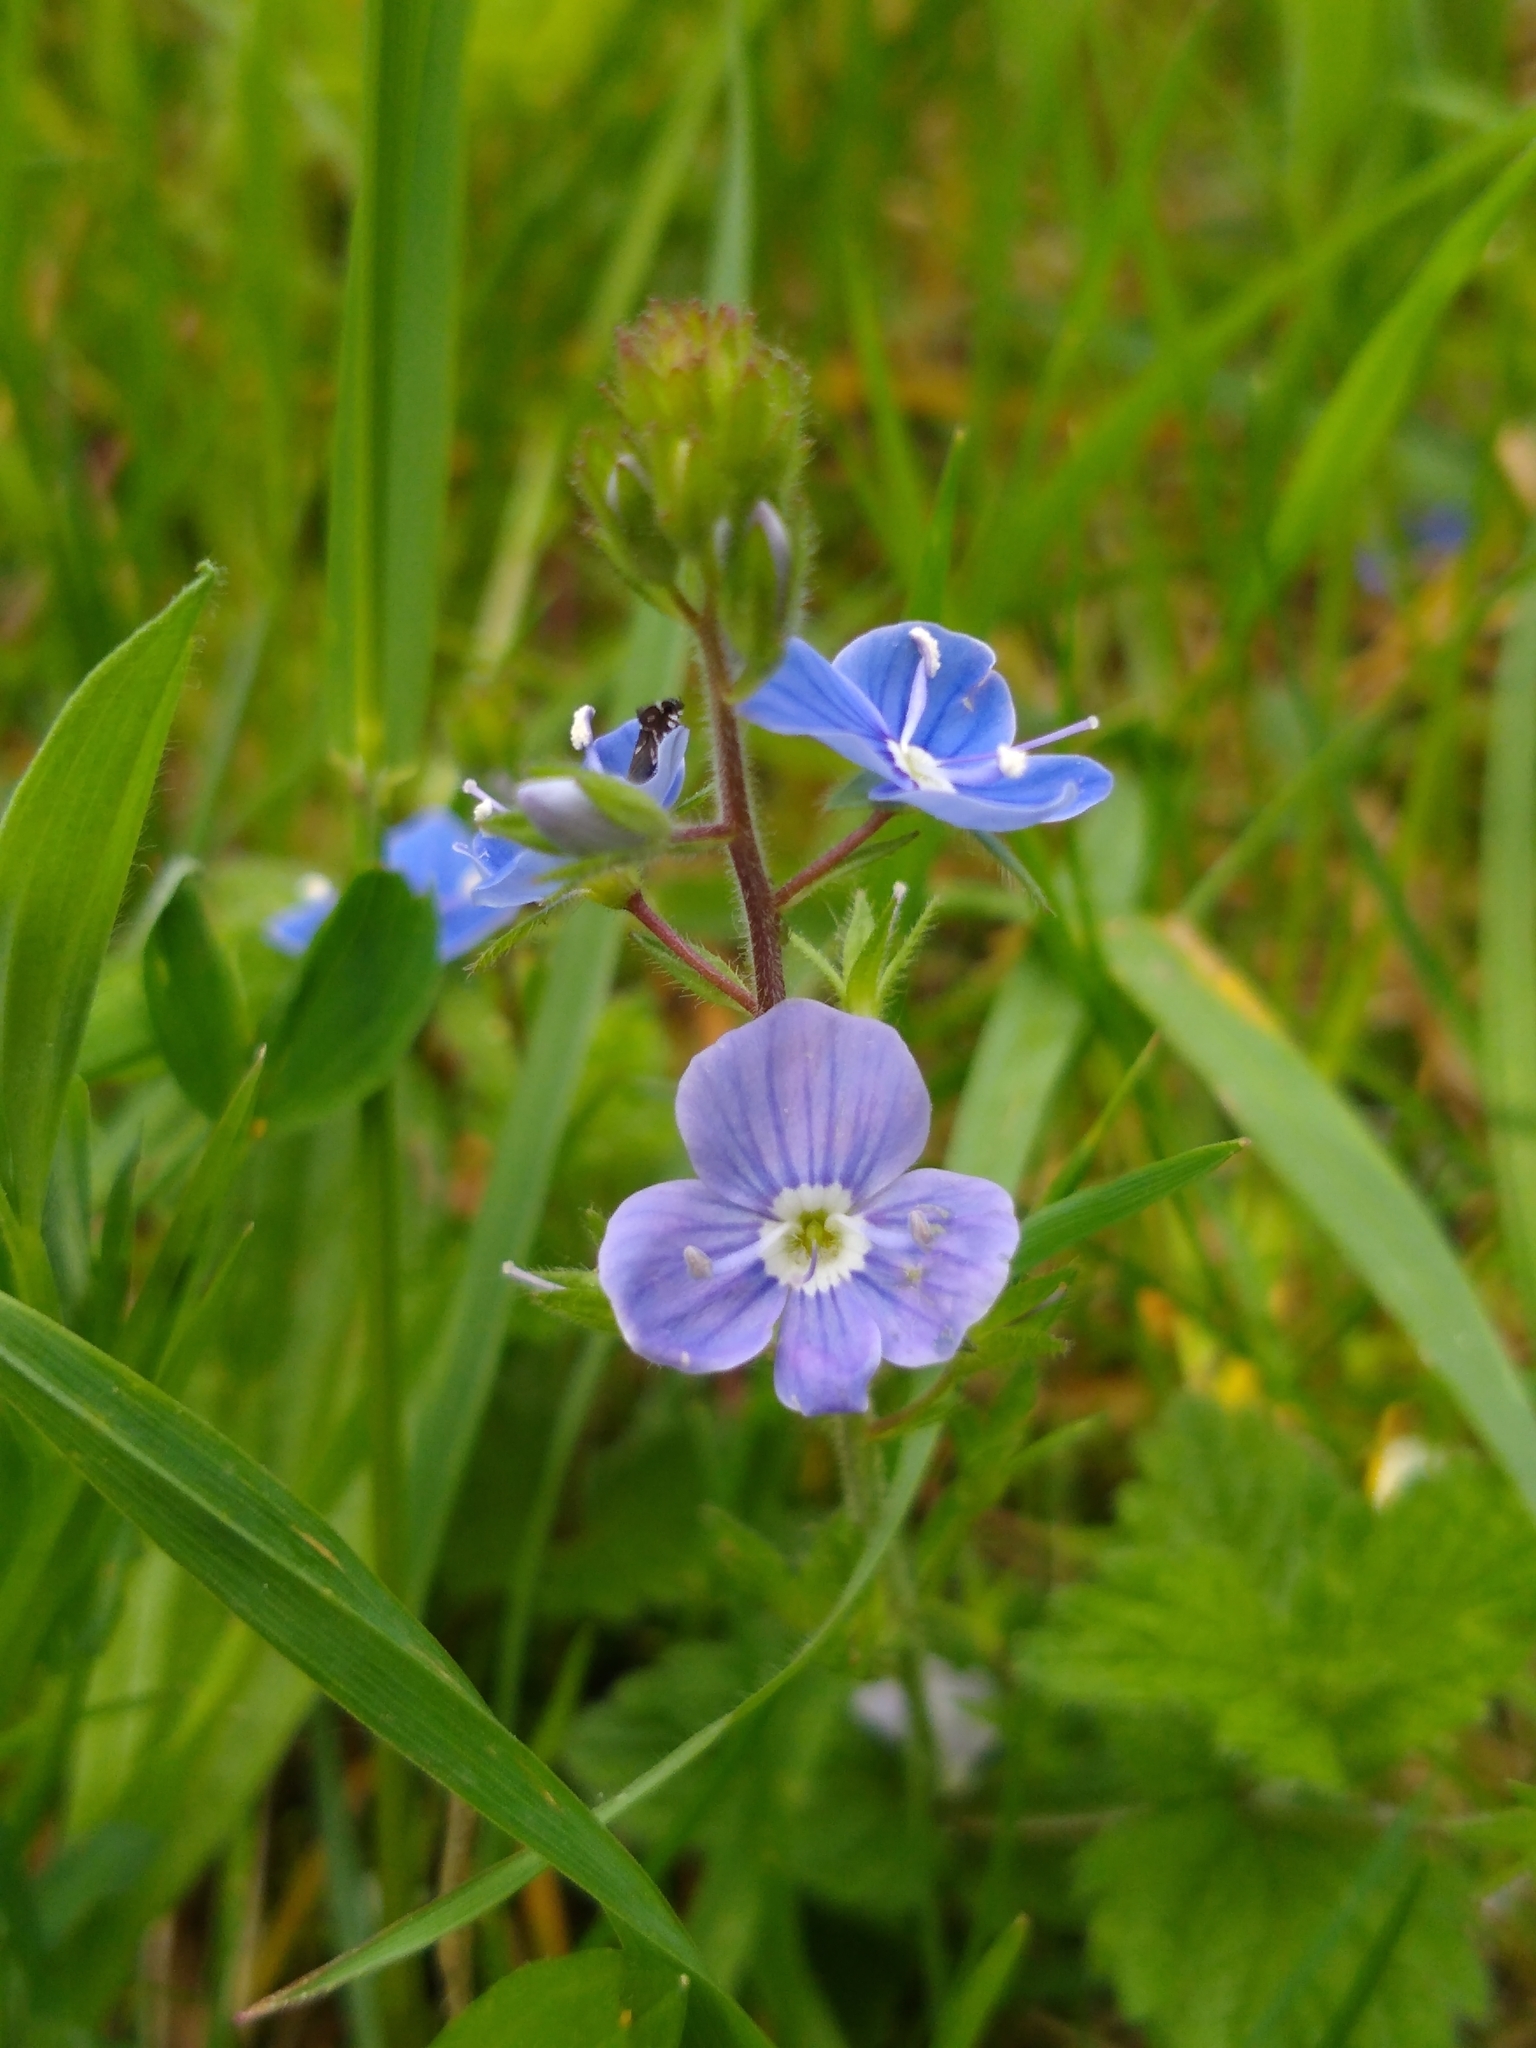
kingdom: Plantae
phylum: Tracheophyta
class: Magnoliopsida
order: Lamiales
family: Plantaginaceae
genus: Veronica
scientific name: Veronica chamaedrys
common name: Germander speedwell
